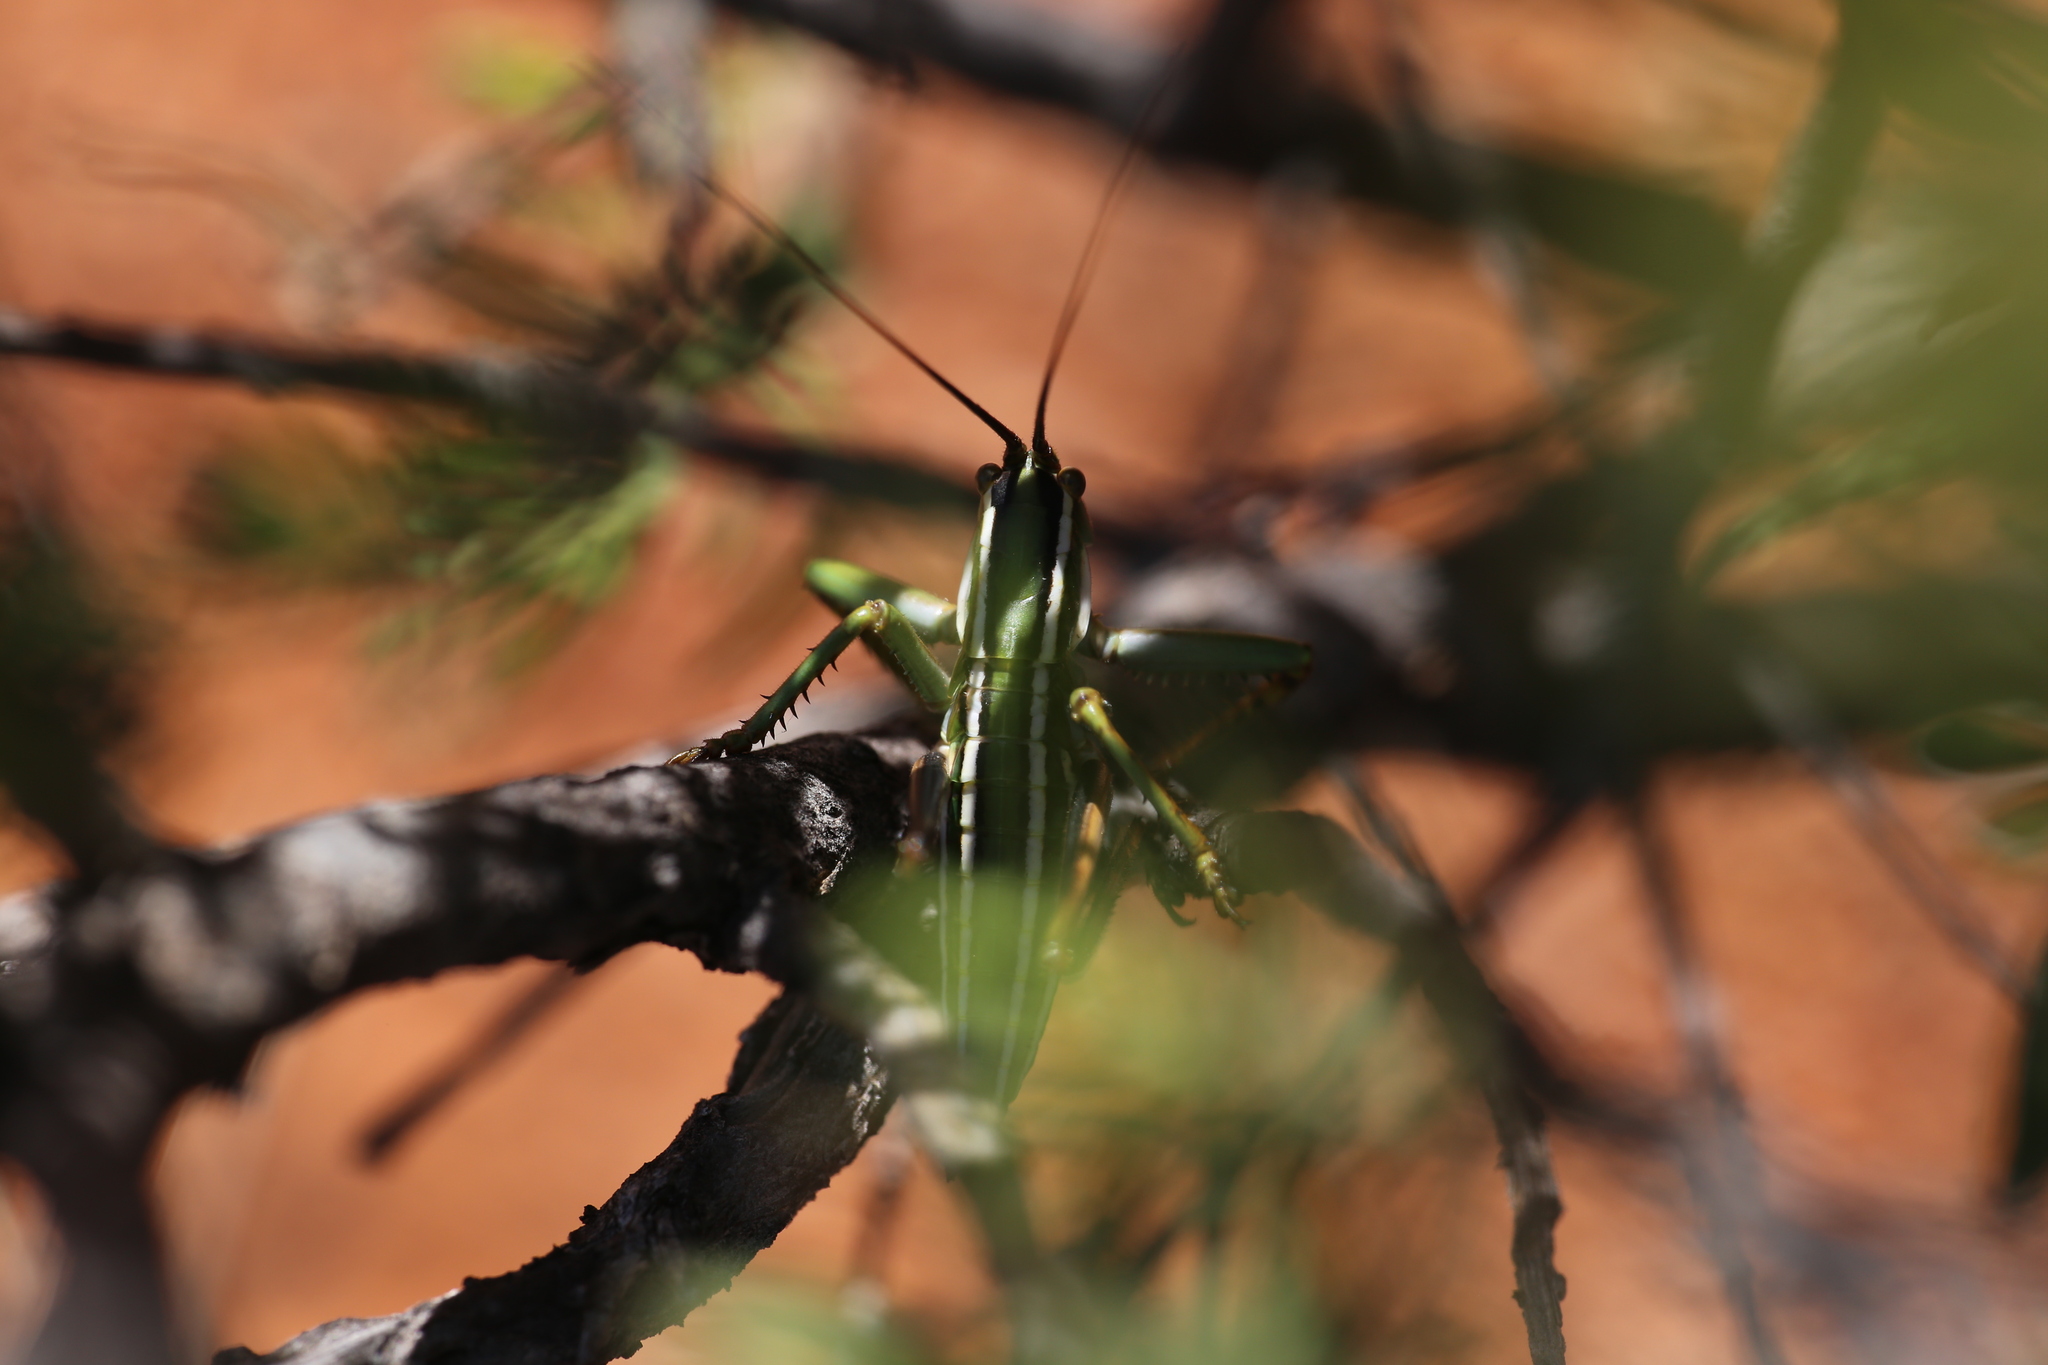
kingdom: Animalia
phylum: Arthropoda
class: Insecta
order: Orthoptera
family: Tettigoniidae
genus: Terpandrus
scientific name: Terpandrus splendidus
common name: Giant gumleaf katydid
